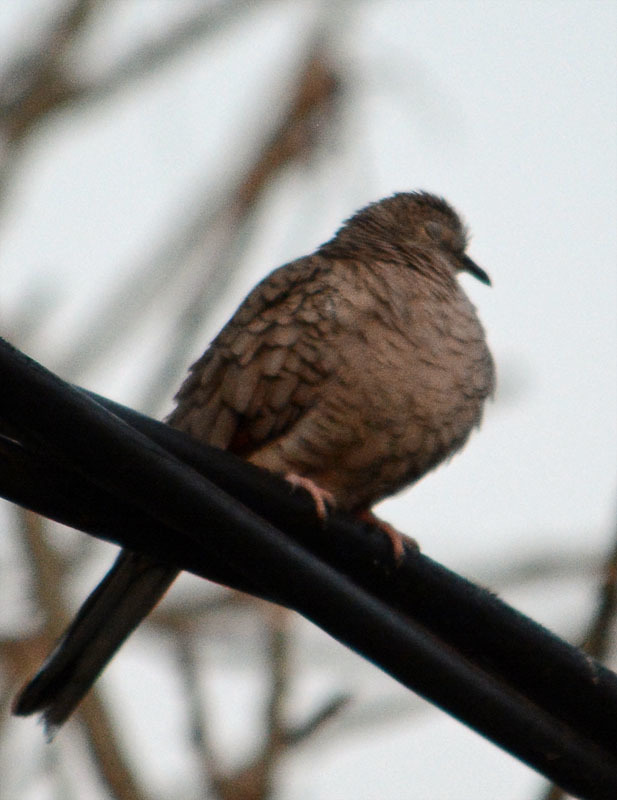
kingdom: Animalia
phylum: Chordata
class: Aves
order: Columbiformes
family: Columbidae
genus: Columbina
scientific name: Columbina inca
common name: Inca dove
